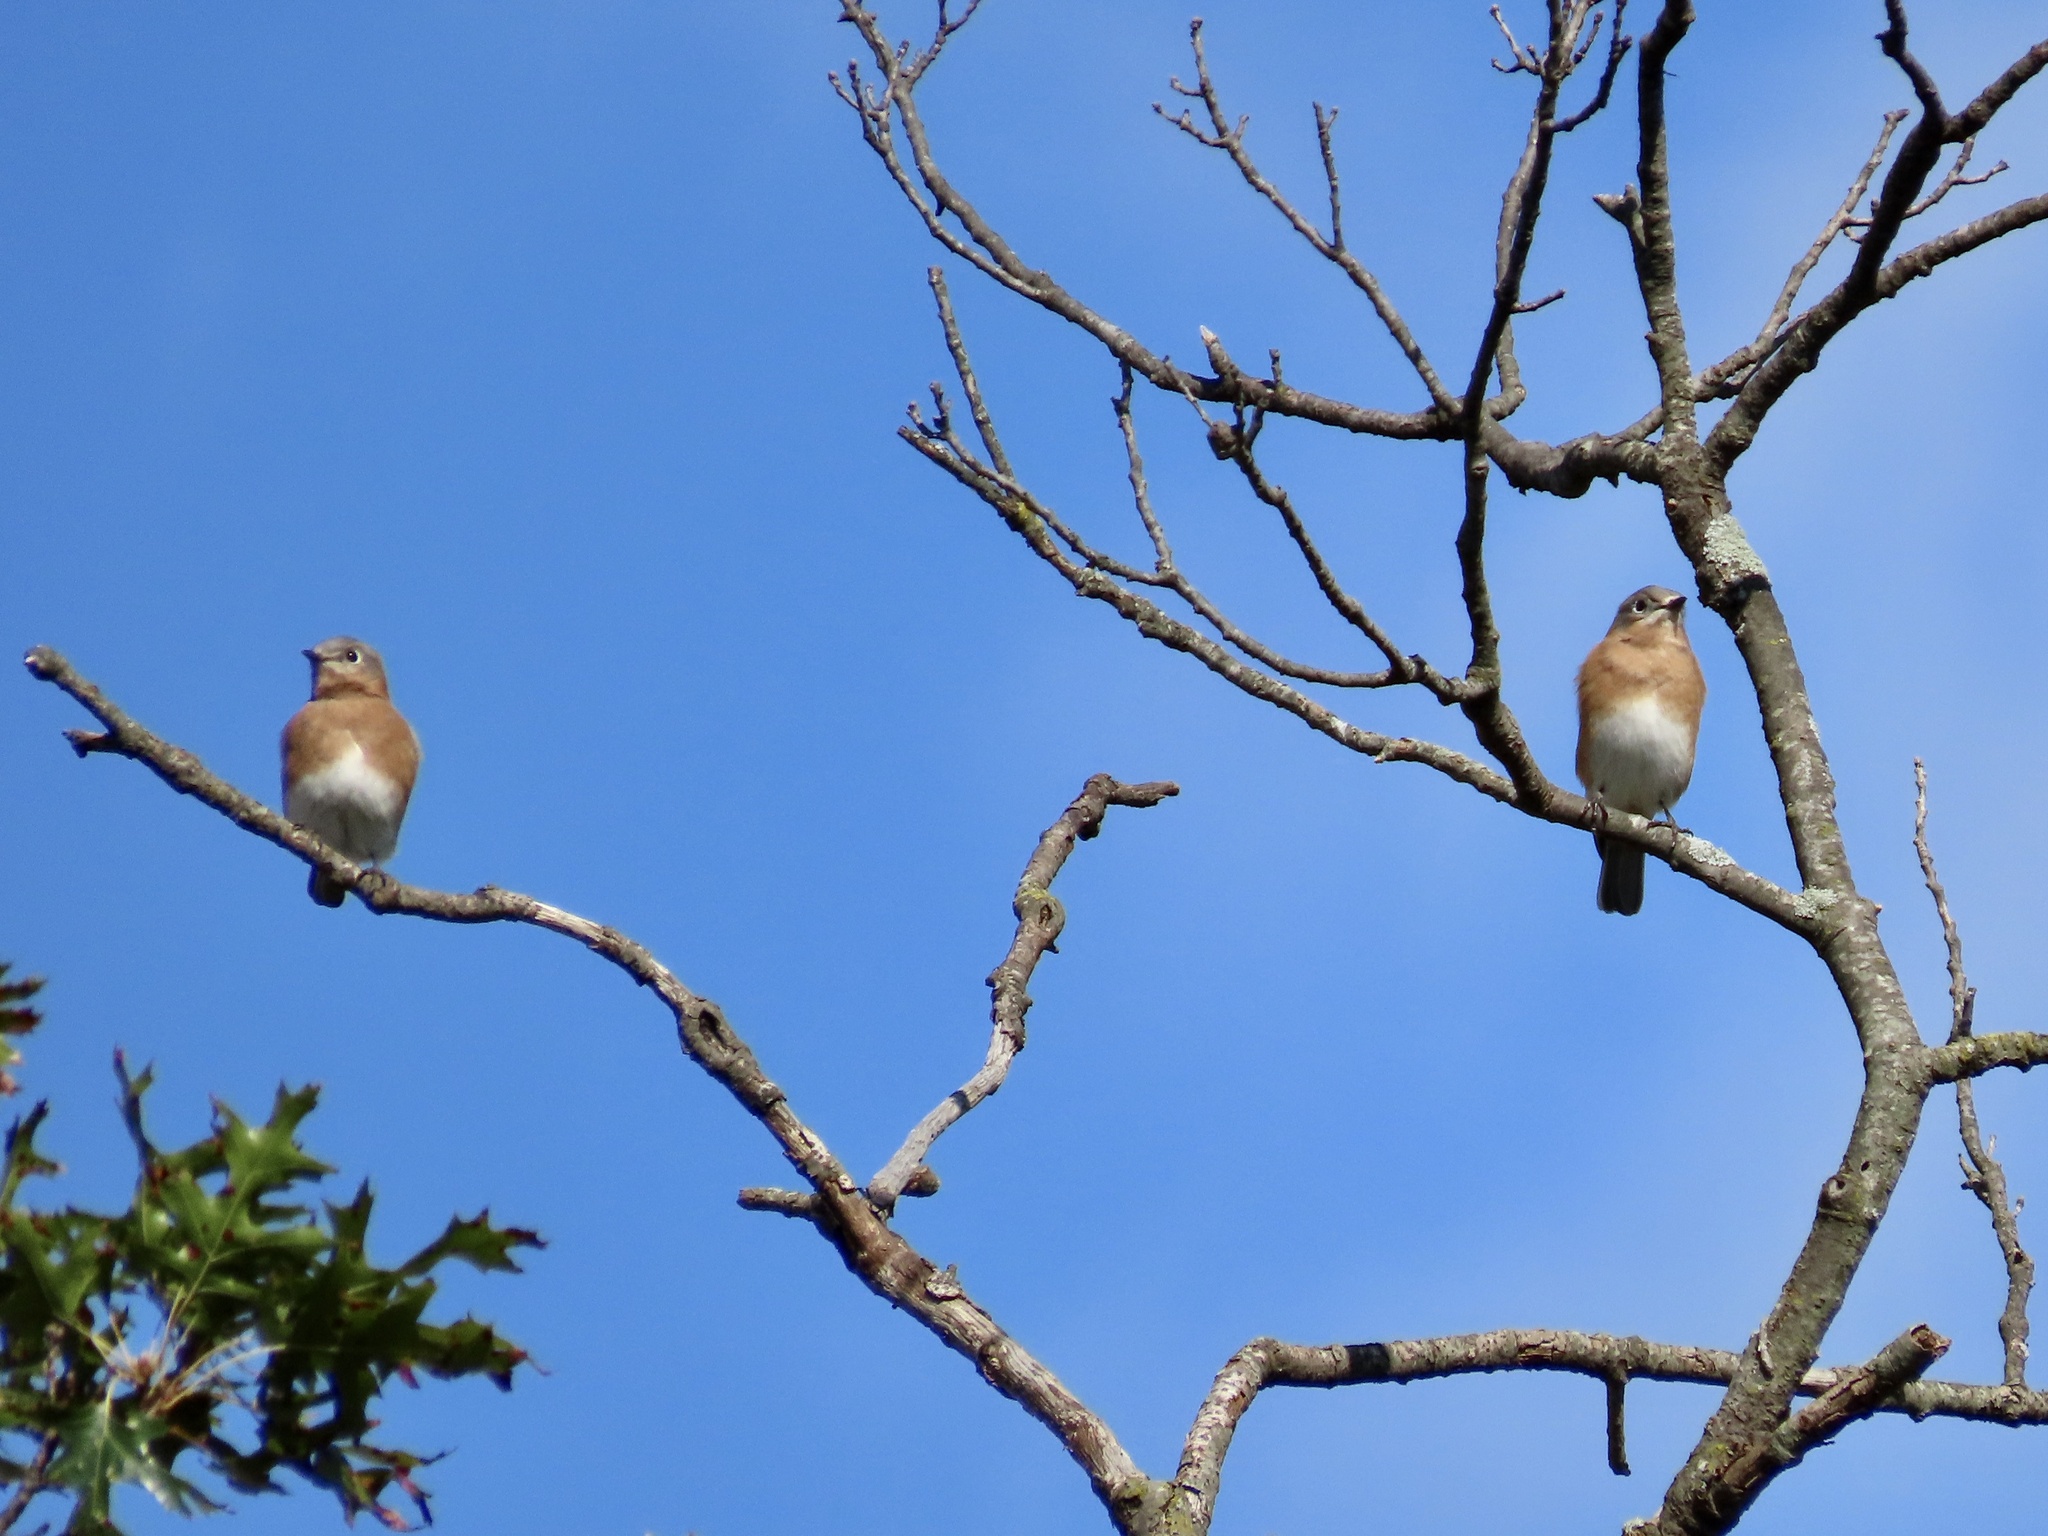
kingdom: Animalia
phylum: Chordata
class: Aves
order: Passeriformes
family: Turdidae
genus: Sialia
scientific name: Sialia sialis
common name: Eastern bluebird
